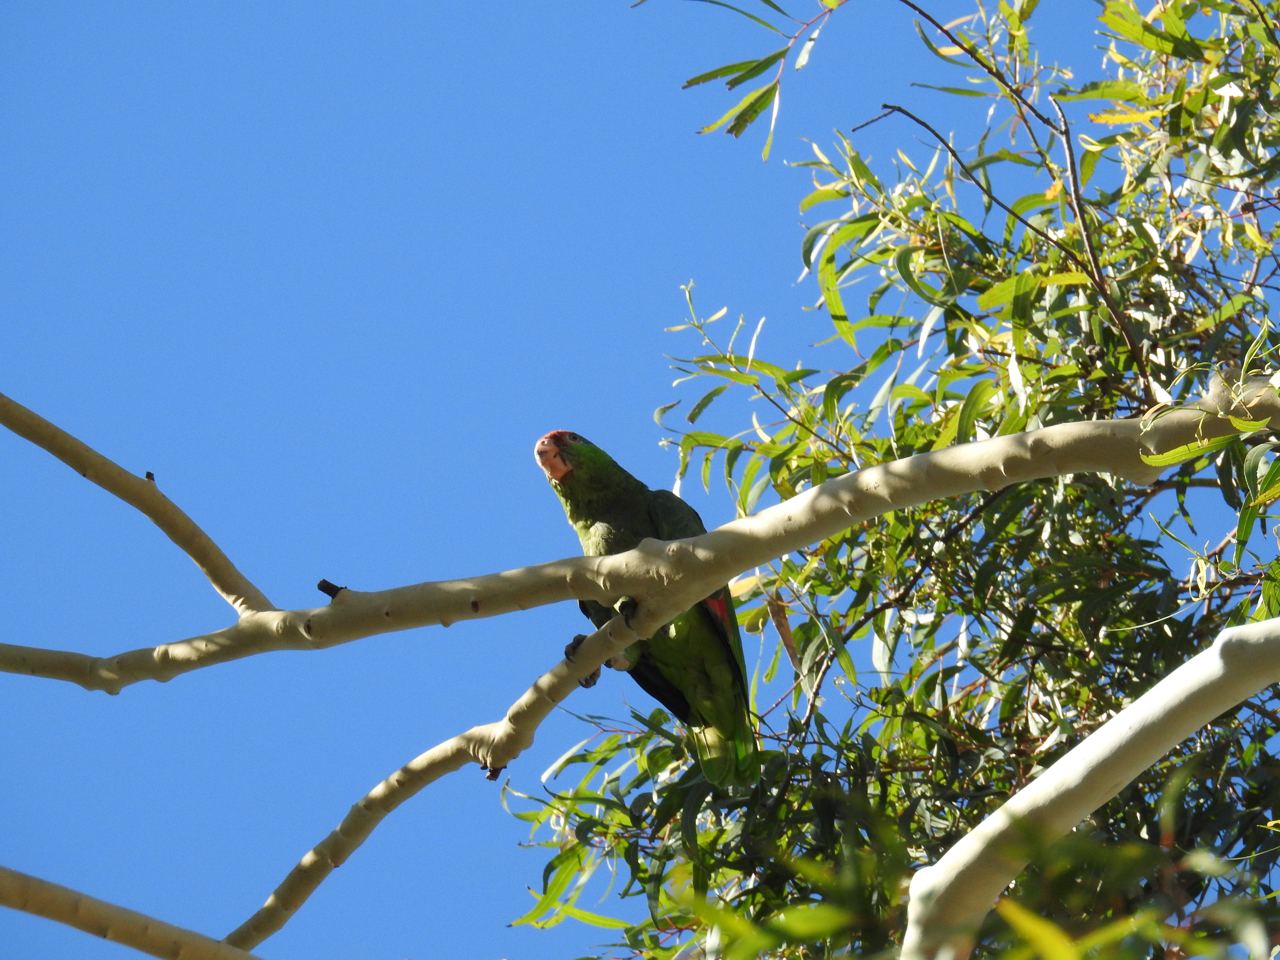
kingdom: Animalia
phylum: Chordata
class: Aves
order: Psittaciformes
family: Psittacidae
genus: Amazona
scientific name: Amazona viridigenalis
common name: Red-crowned amazon
